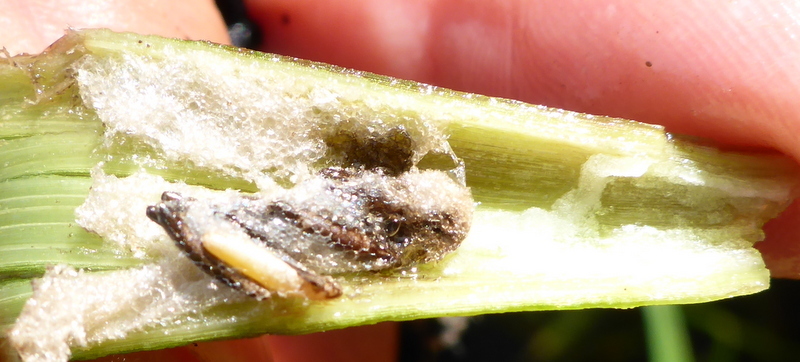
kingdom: Animalia
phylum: Arthropoda
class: Insecta
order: Coleoptera
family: Chrysomelidae
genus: Agasicles
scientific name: Agasicles hygrophila
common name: Alligatorweed flea beetle
